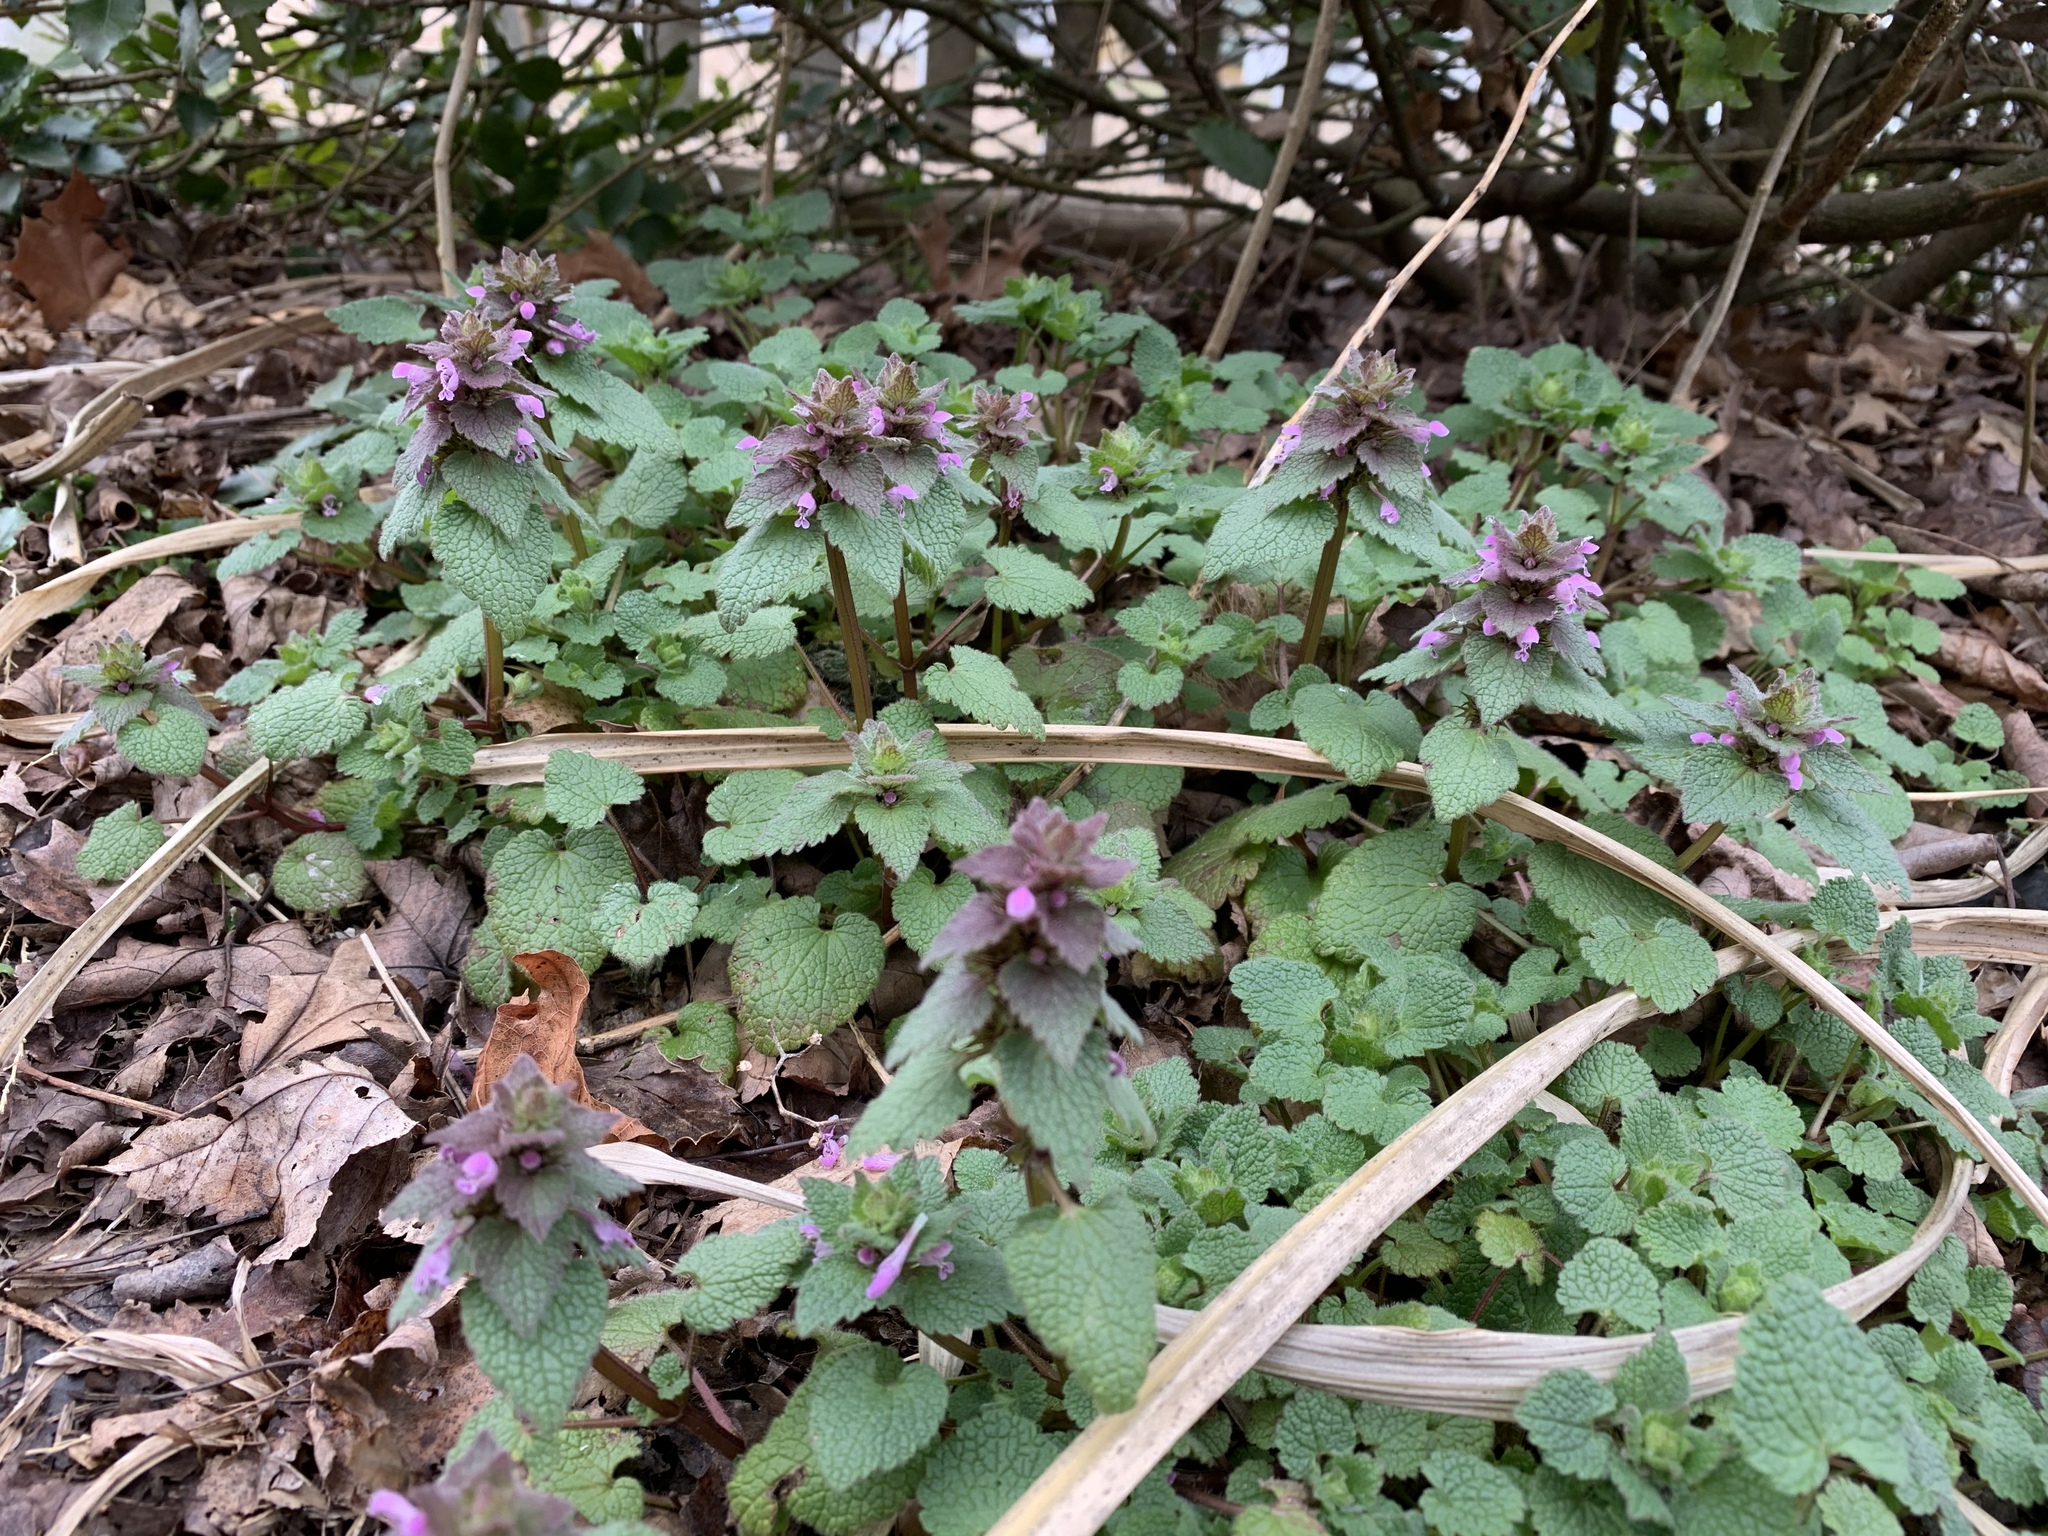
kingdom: Plantae
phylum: Tracheophyta
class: Magnoliopsida
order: Lamiales
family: Lamiaceae
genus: Lamium
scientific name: Lamium purpureum
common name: Red dead-nettle
